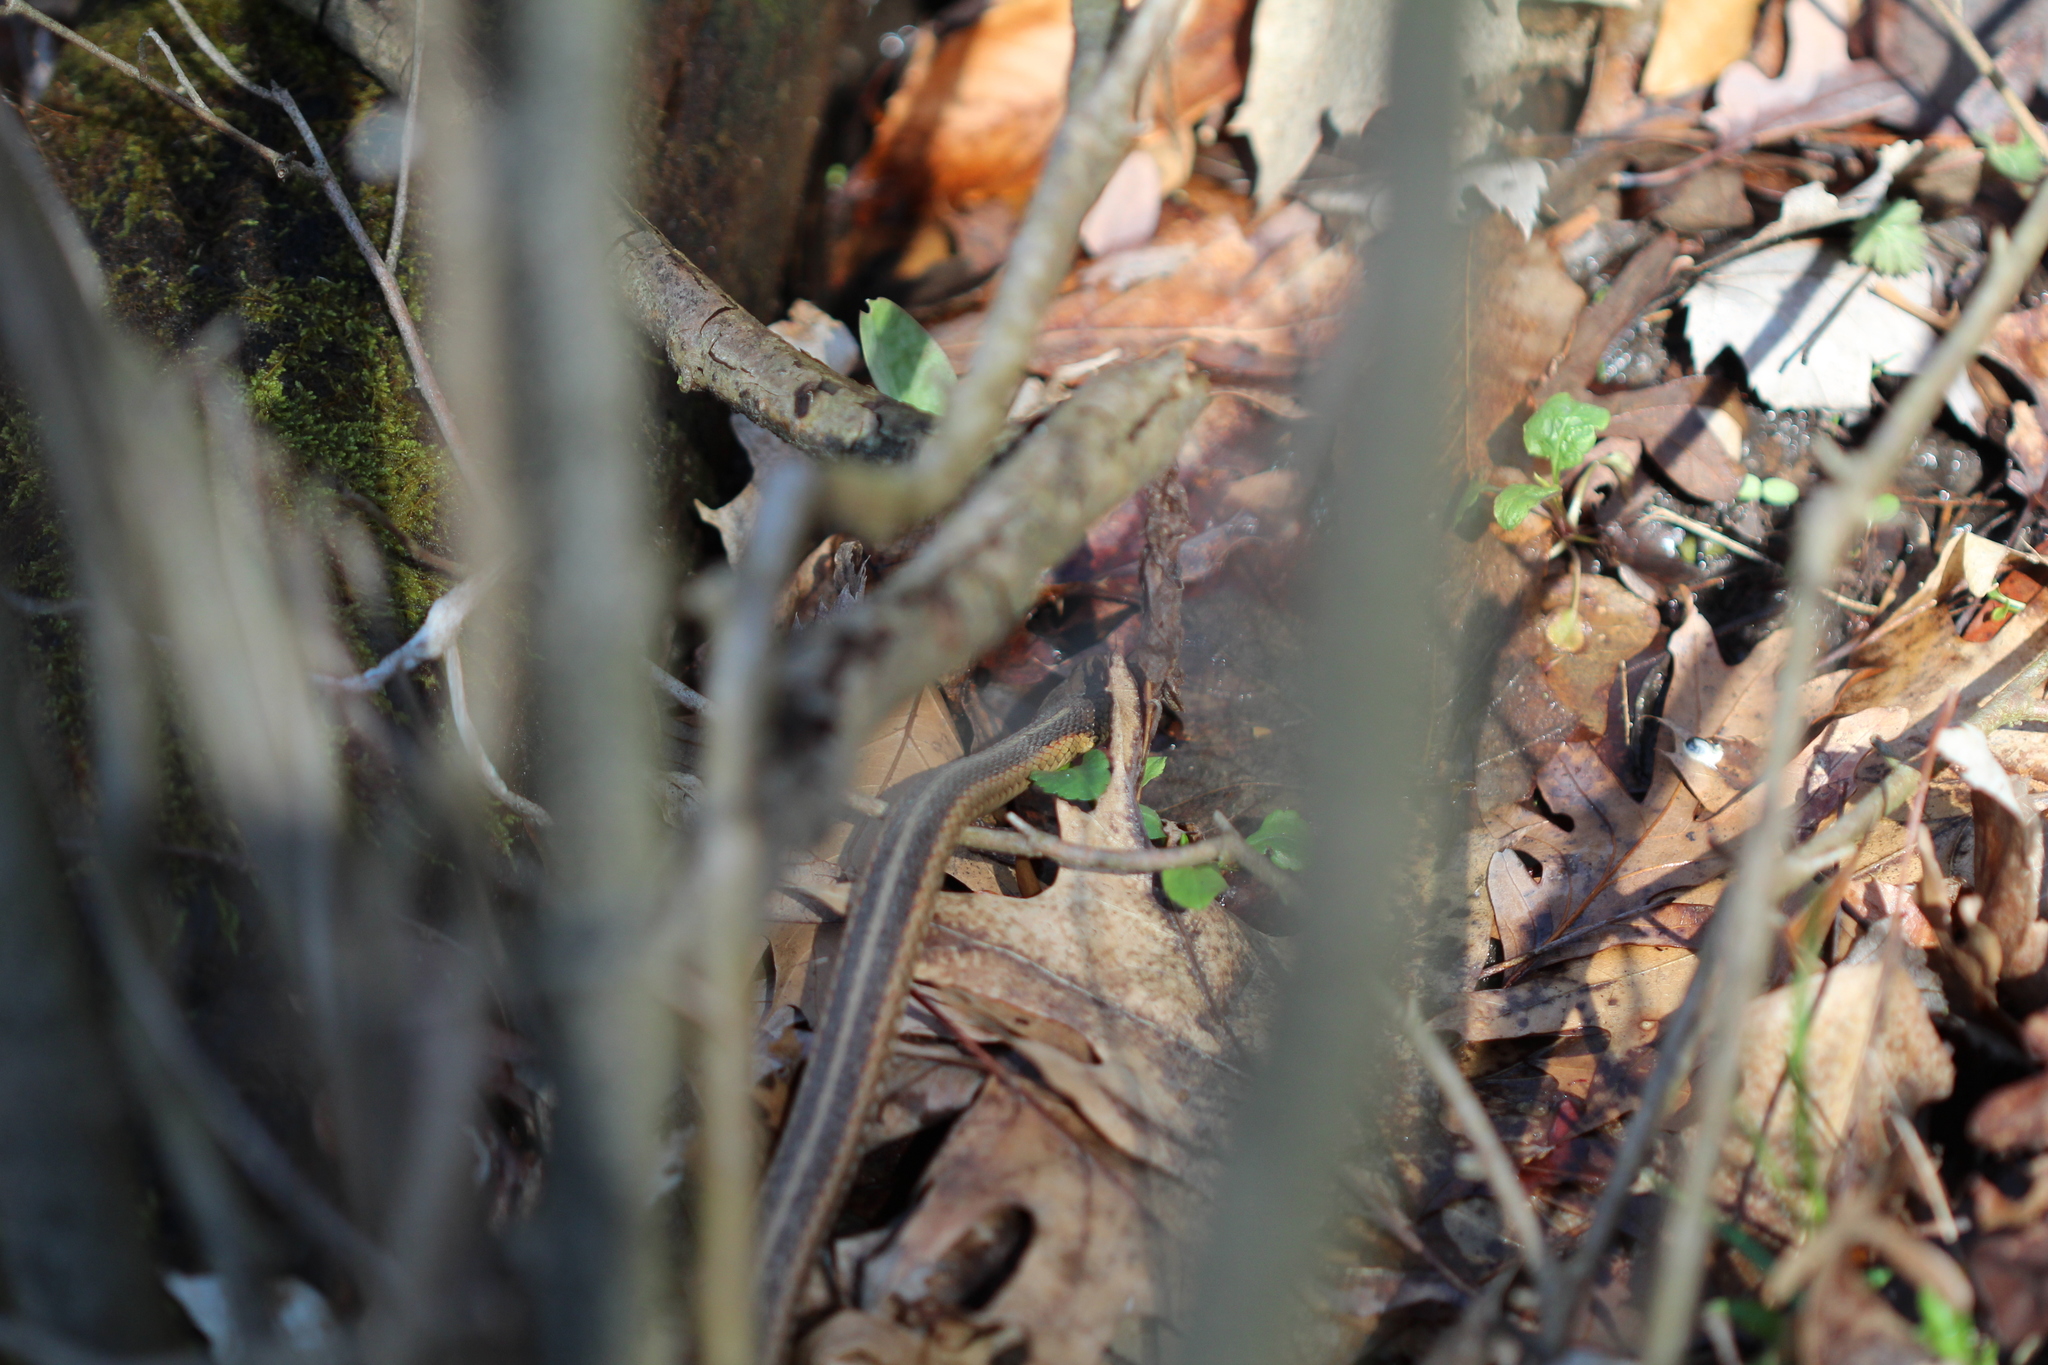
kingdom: Animalia
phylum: Chordata
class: Squamata
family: Colubridae
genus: Thamnophis
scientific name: Thamnophis sirtalis
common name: Common garter snake
